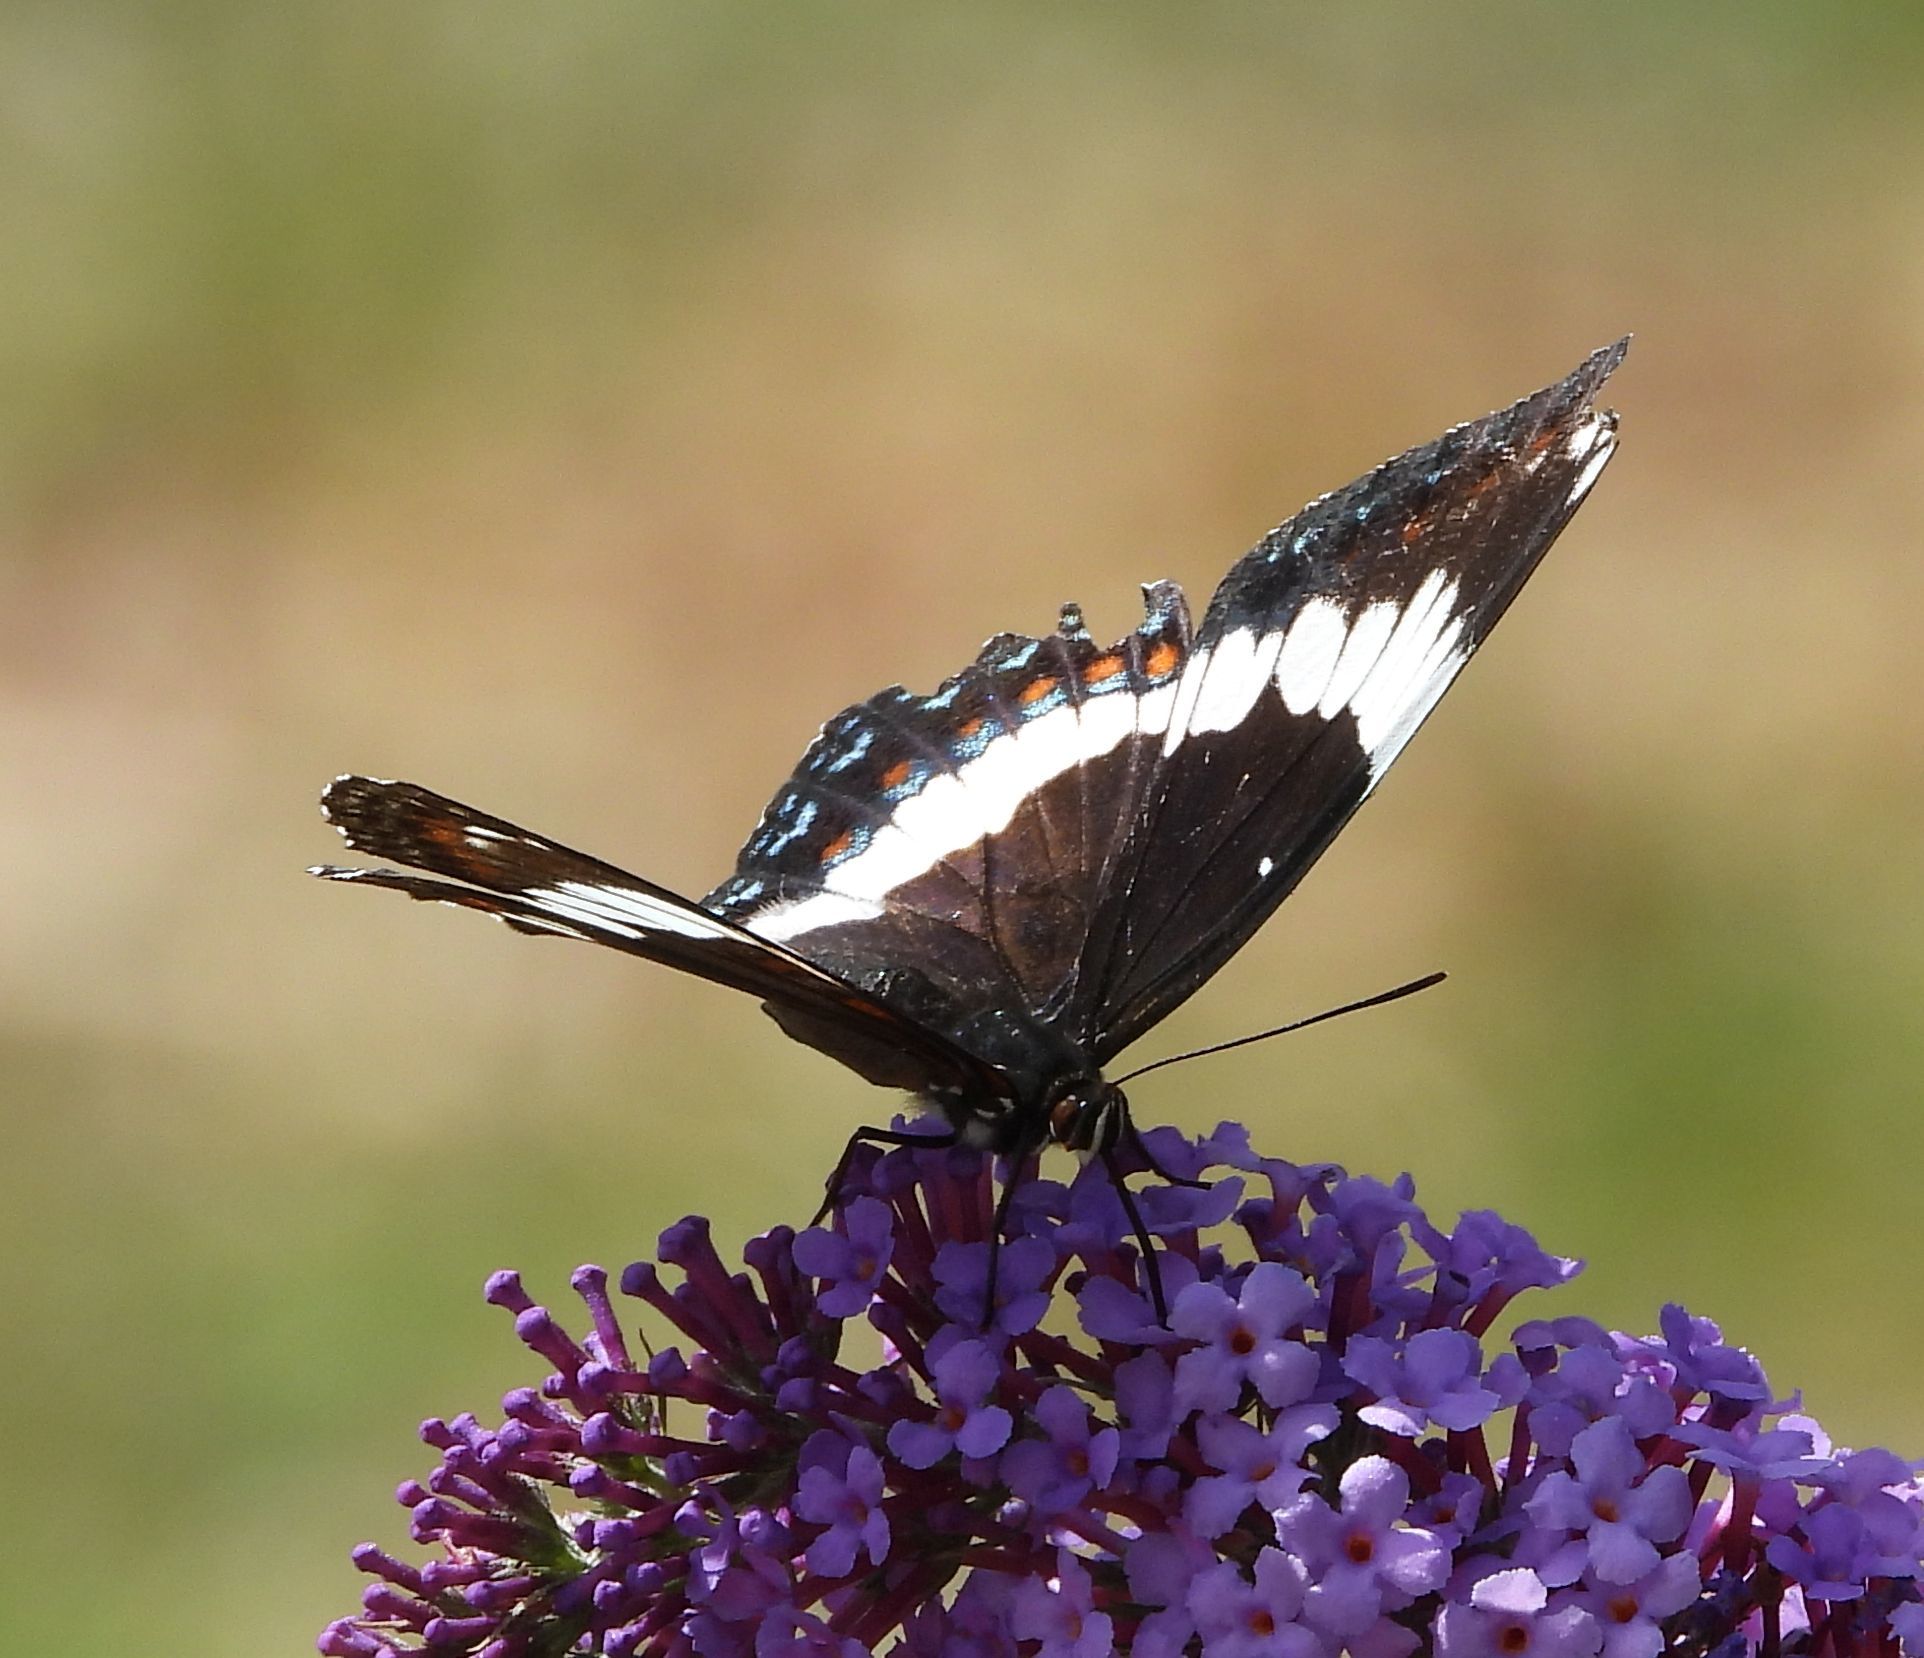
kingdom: Animalia
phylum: Arthropoda
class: Insecta
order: Lepidoptera
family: Nymphalidae
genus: Limenitis
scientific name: Limenitis arthemis
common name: Red-spotted admiral
